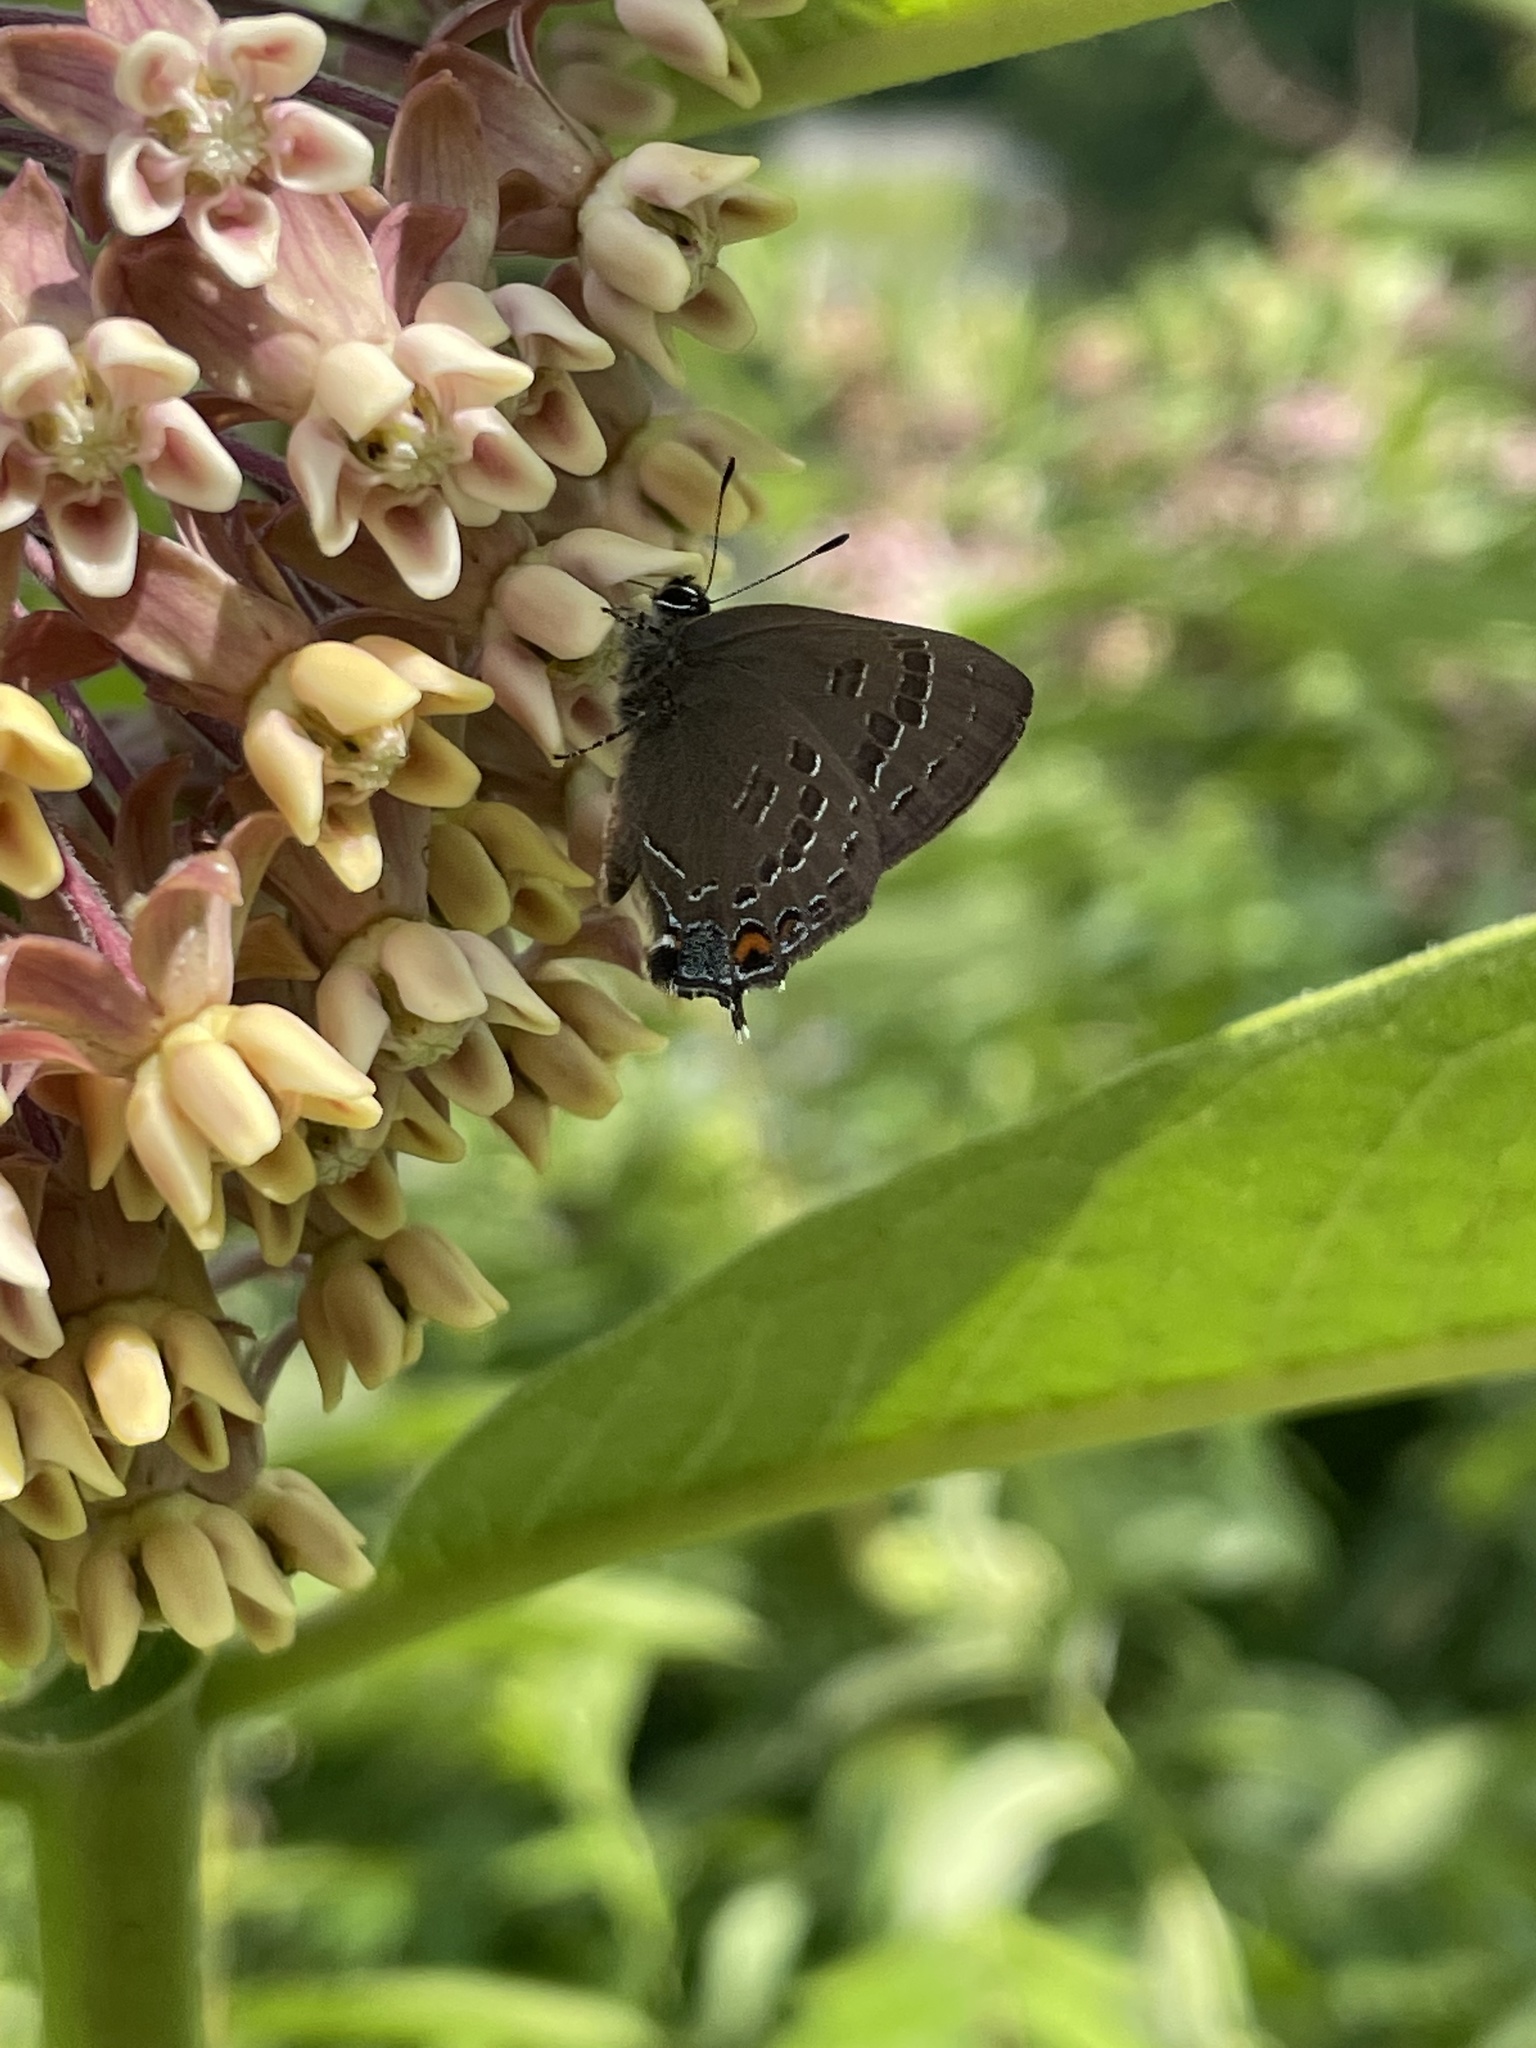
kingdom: Animalia
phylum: Arthropoda
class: Insecta
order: Lepidoptera
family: Lycaenidae
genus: Satyrium
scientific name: Satyrium calanus
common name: Banded hairstreak
